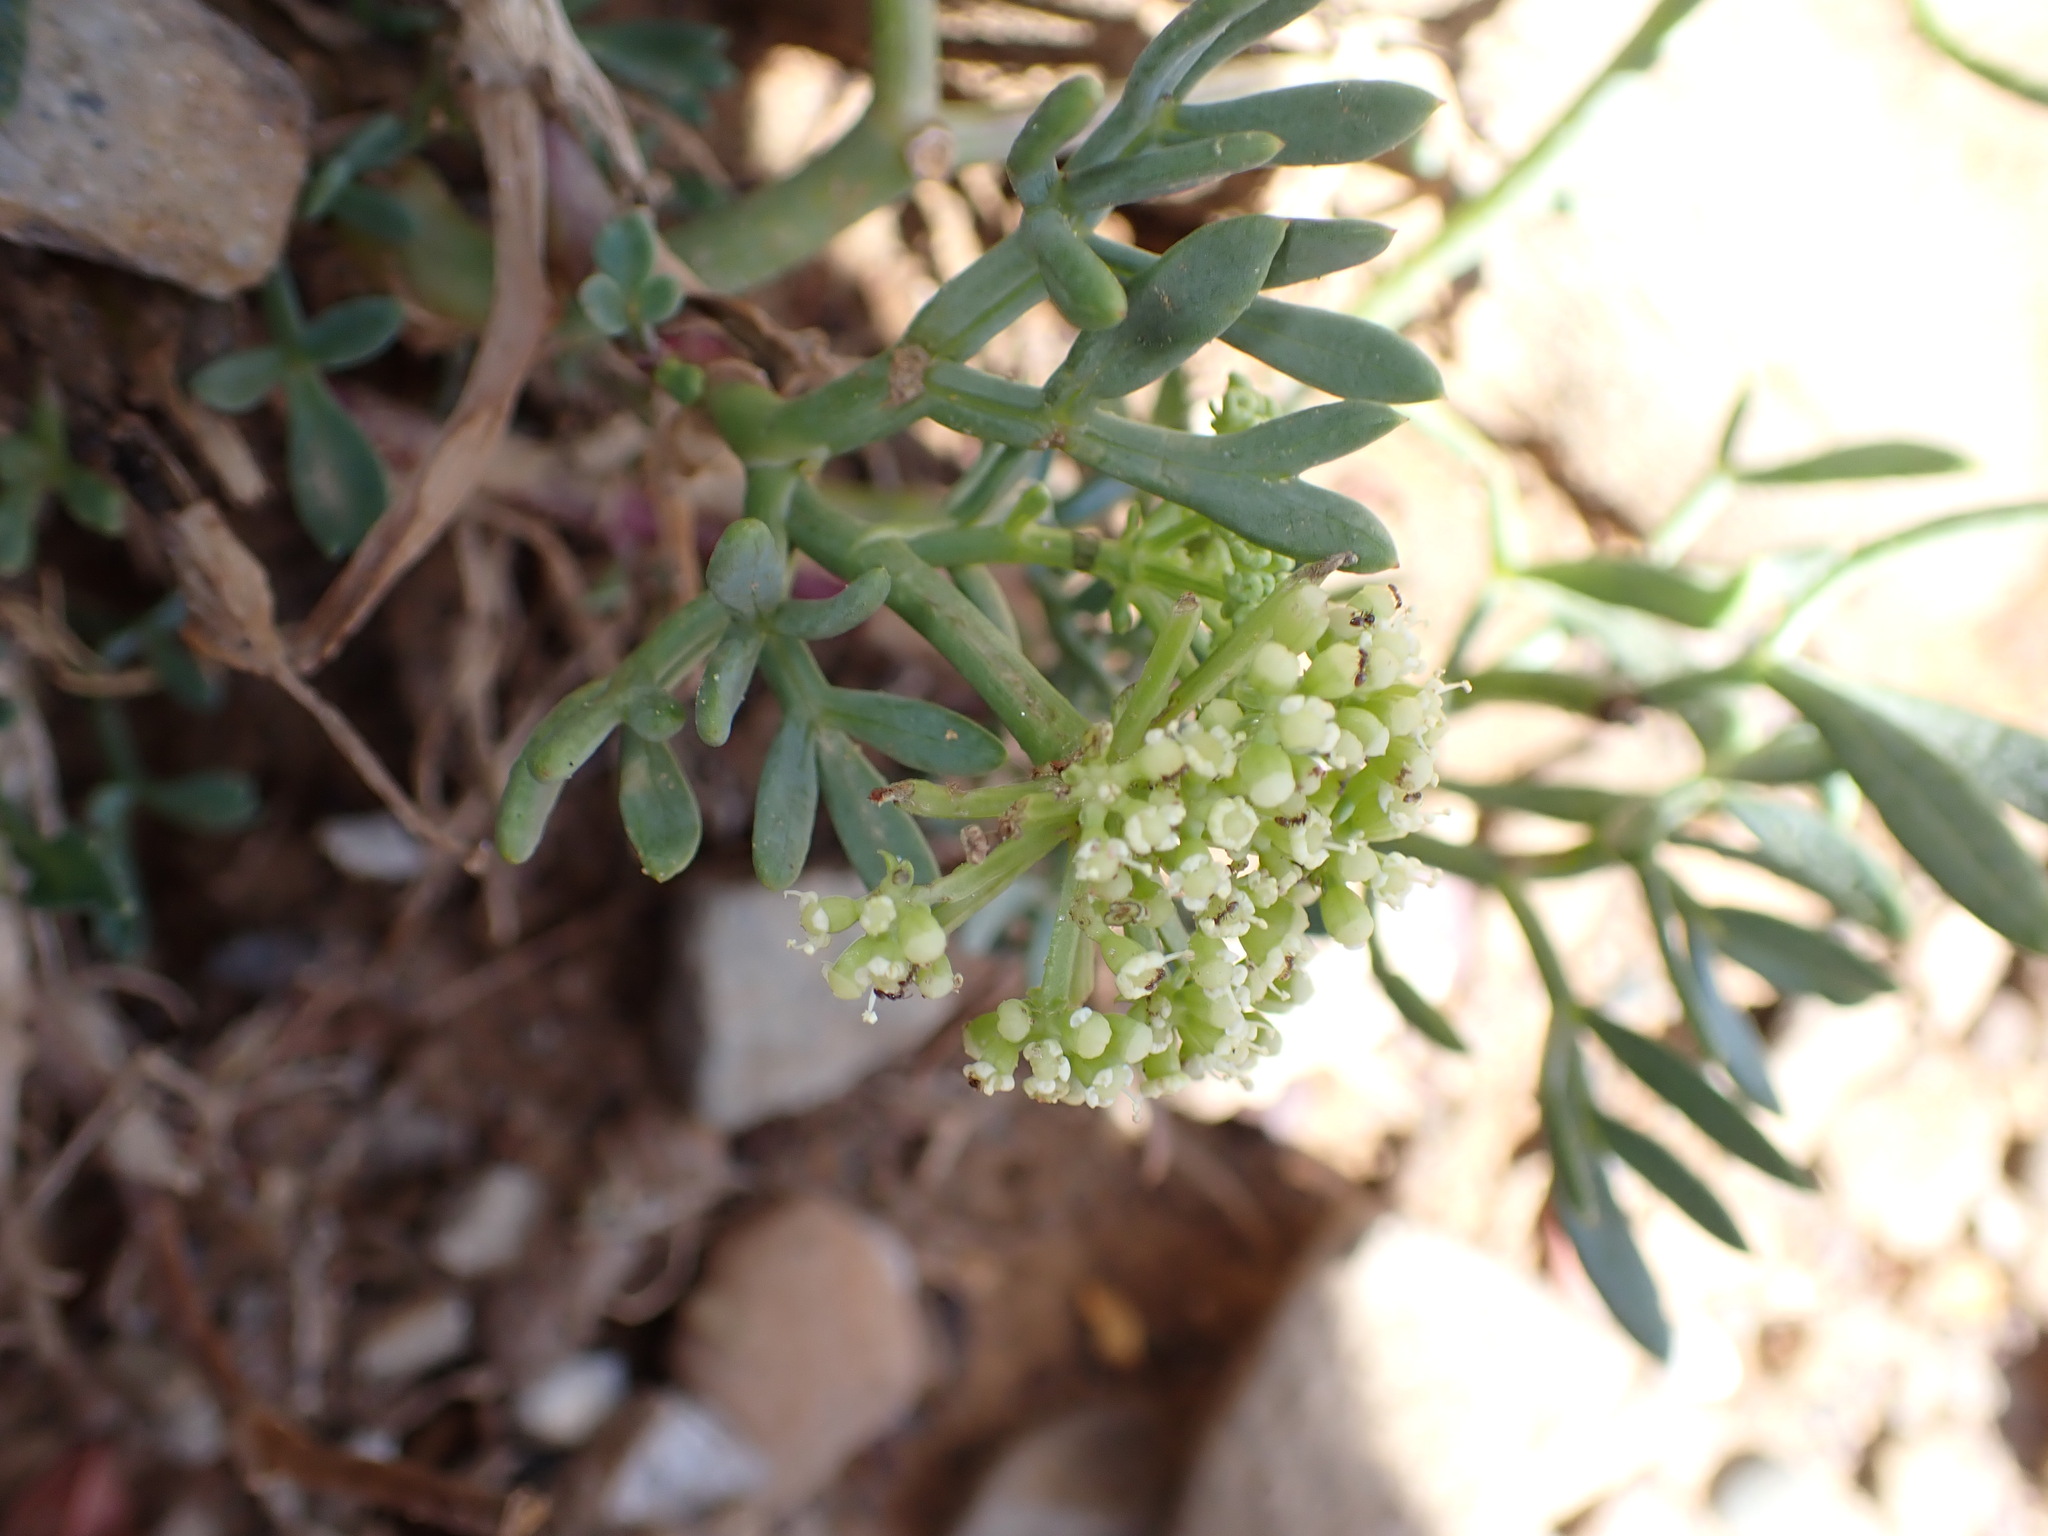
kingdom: Plantae
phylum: Tracheophyta
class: Magnoliopsida
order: Apiales
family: Apiaceae
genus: Crithmum
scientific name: Crithmum maritimum
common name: Rock samphire
